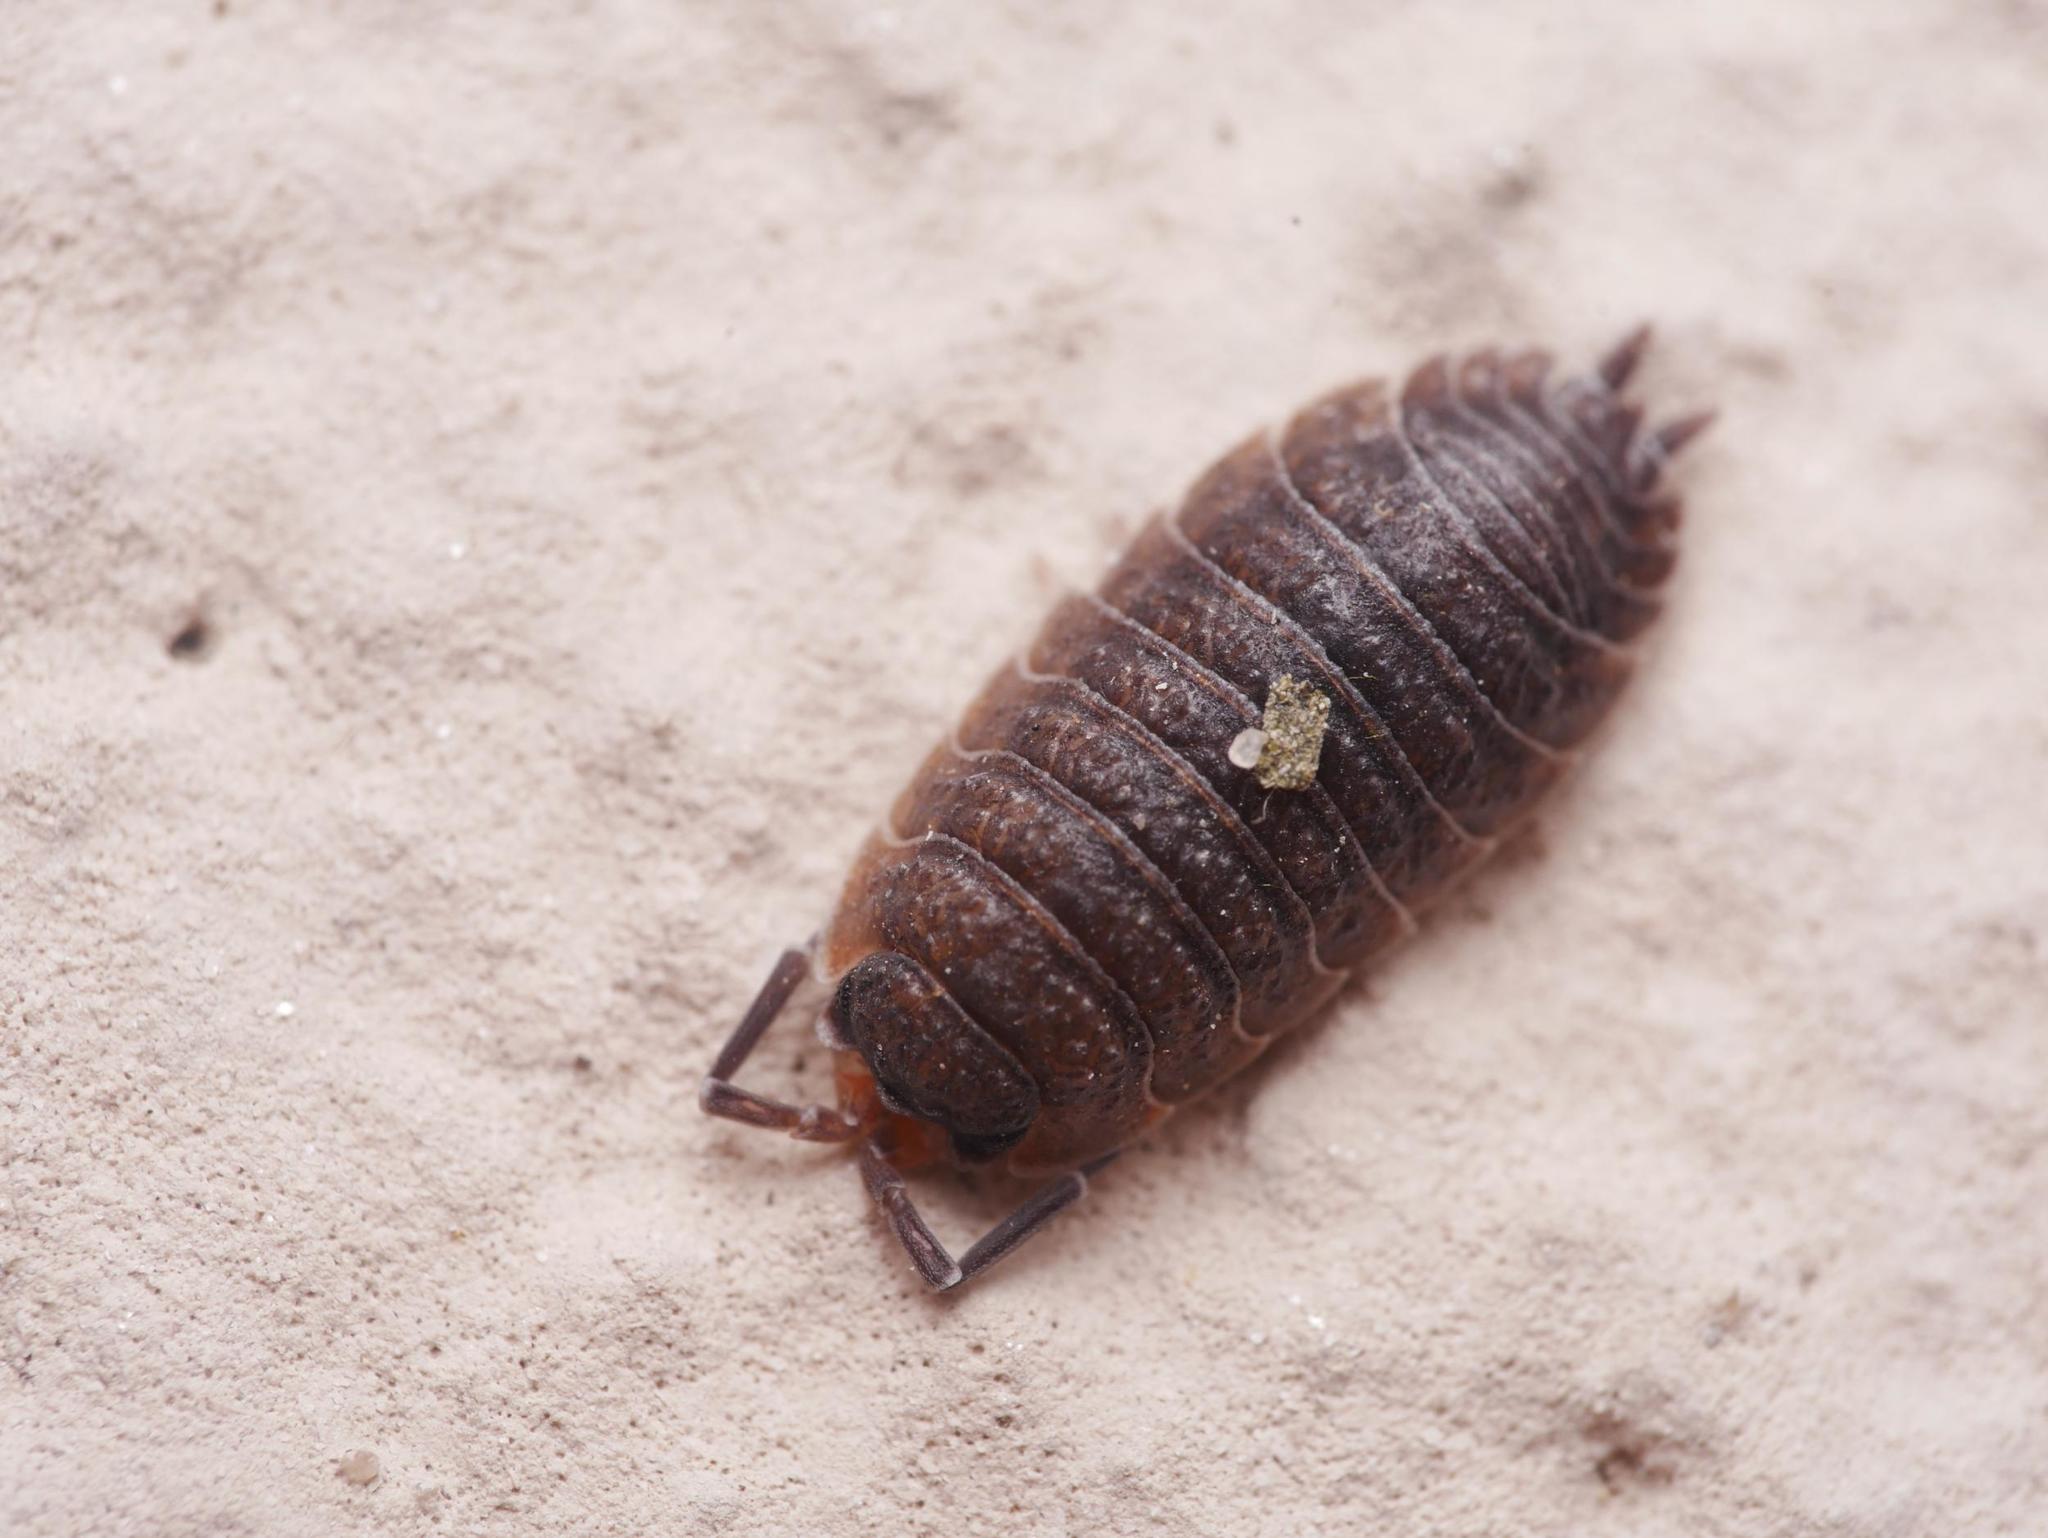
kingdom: Animalia
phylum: Arthropoda
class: Malacostraca
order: Isopoda
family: Porcellionidae
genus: Porcellio
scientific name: Porcellio scaber
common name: Common rough woodlouse
